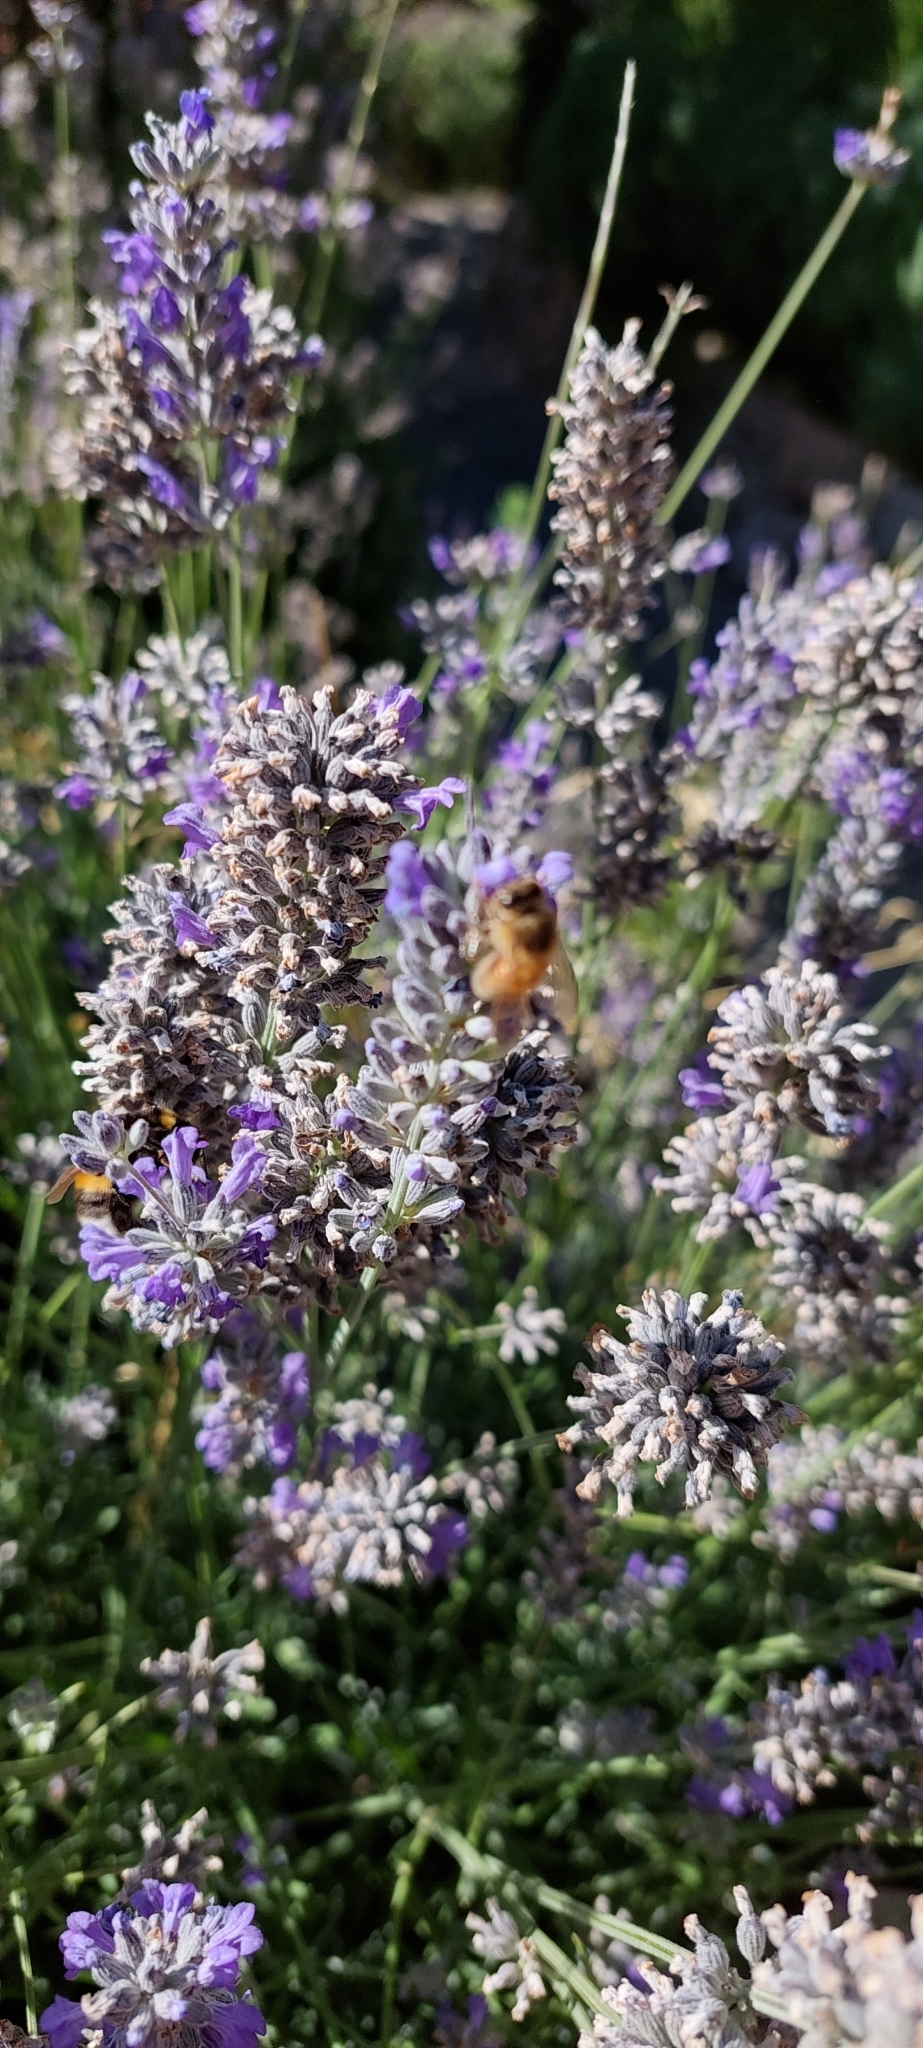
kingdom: Animalia
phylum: Arthropoda
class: Insecta
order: Hymenoptera
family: Apidae
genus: Apis
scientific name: Apis mellifera
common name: Honey bee
